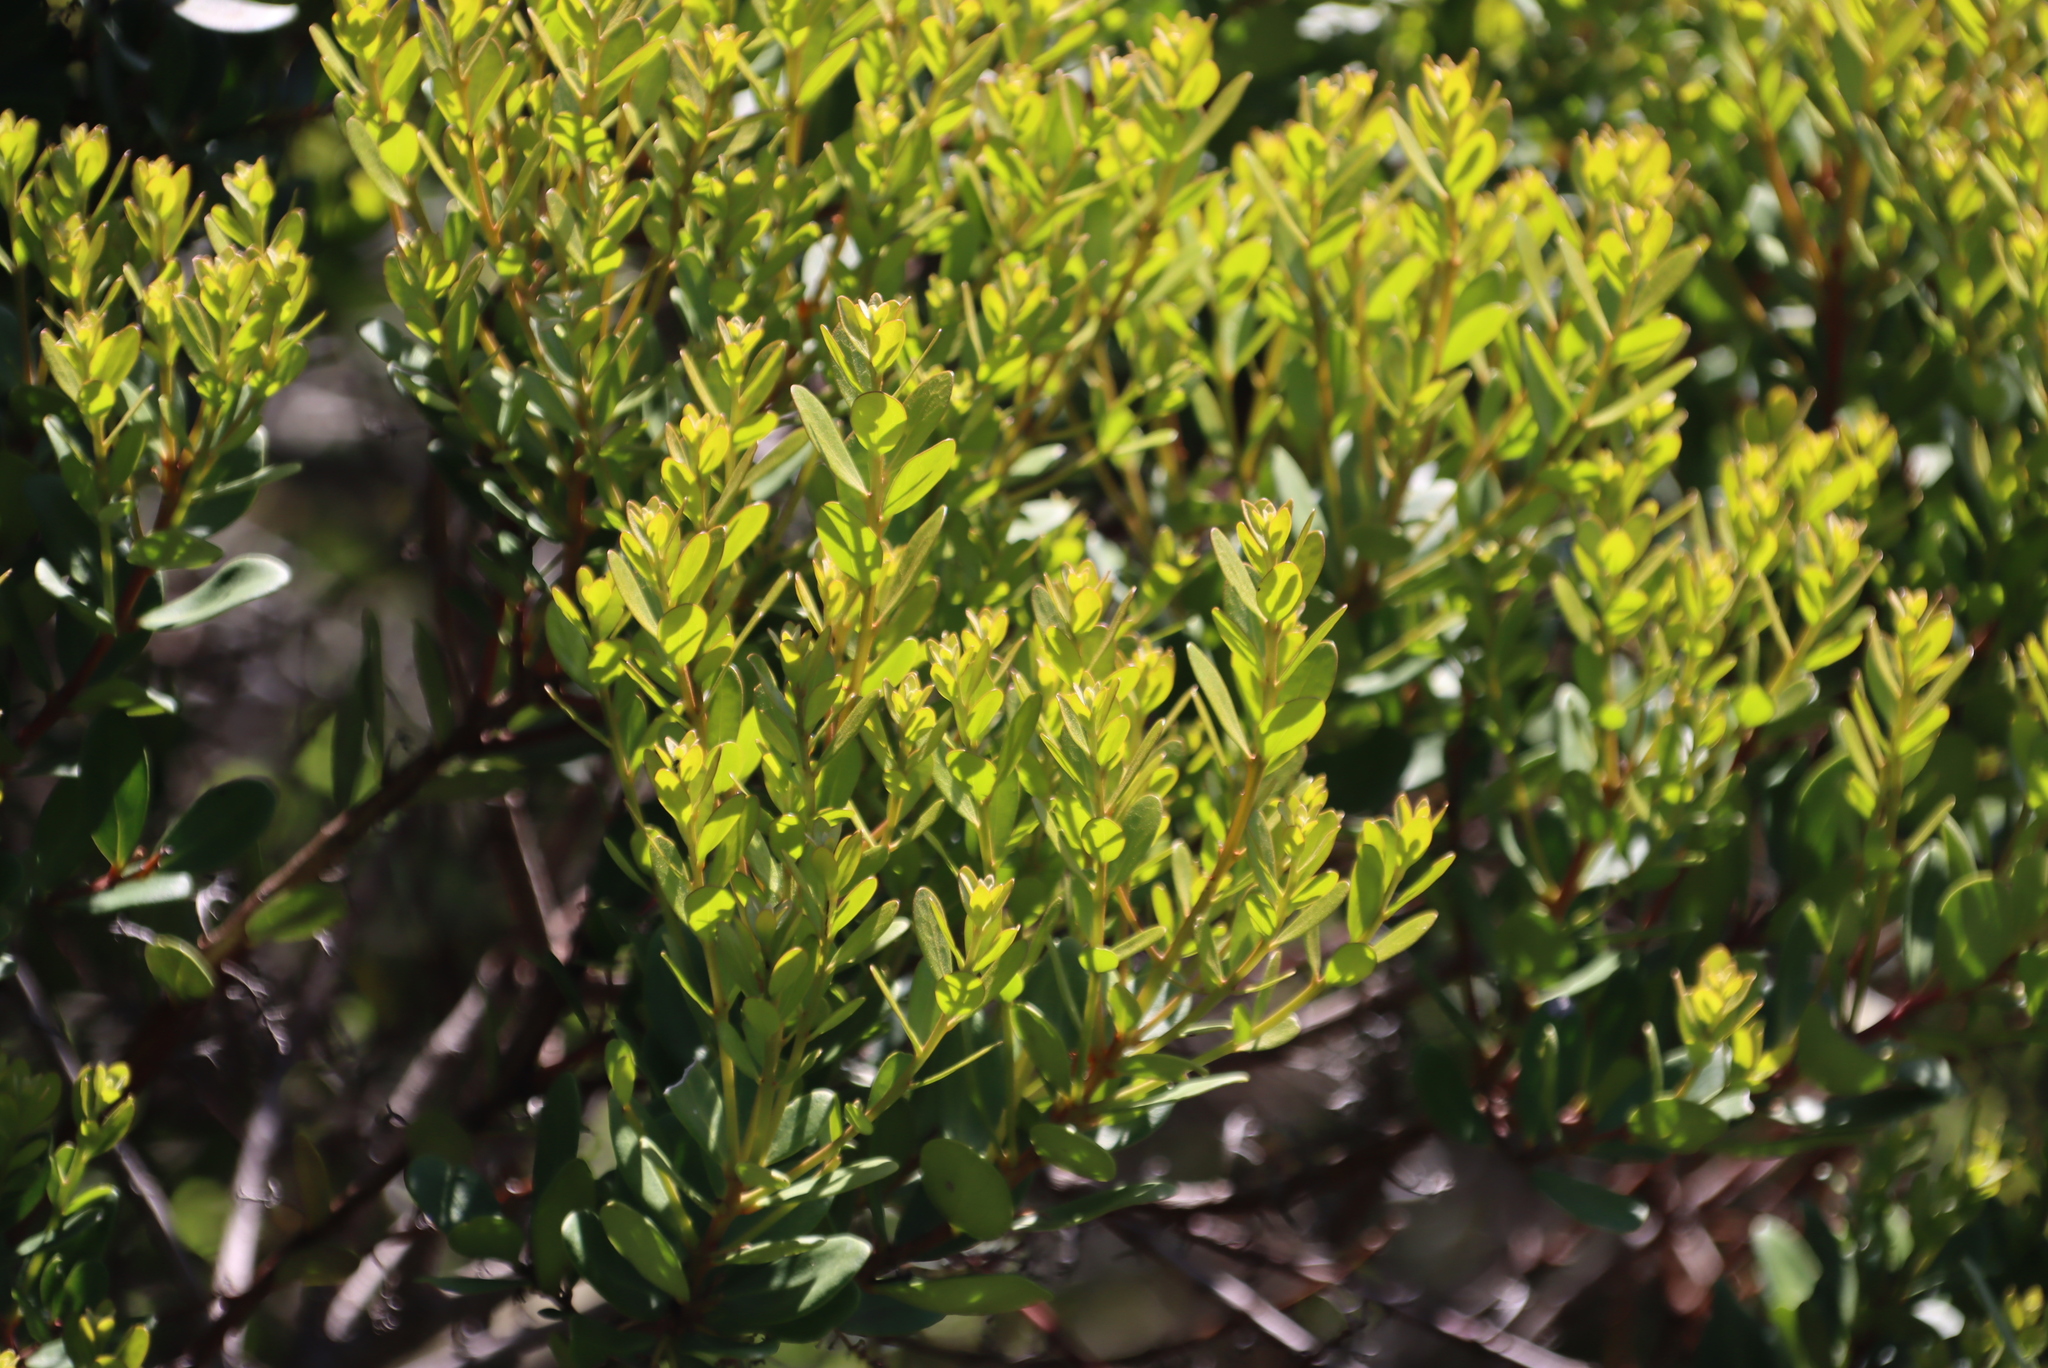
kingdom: Plantae
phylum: Tracheophyta
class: Magnoliopsida
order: Ericales
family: Ebenaceae
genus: Euclea
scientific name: Euclea racemosa
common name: Dune guarri
